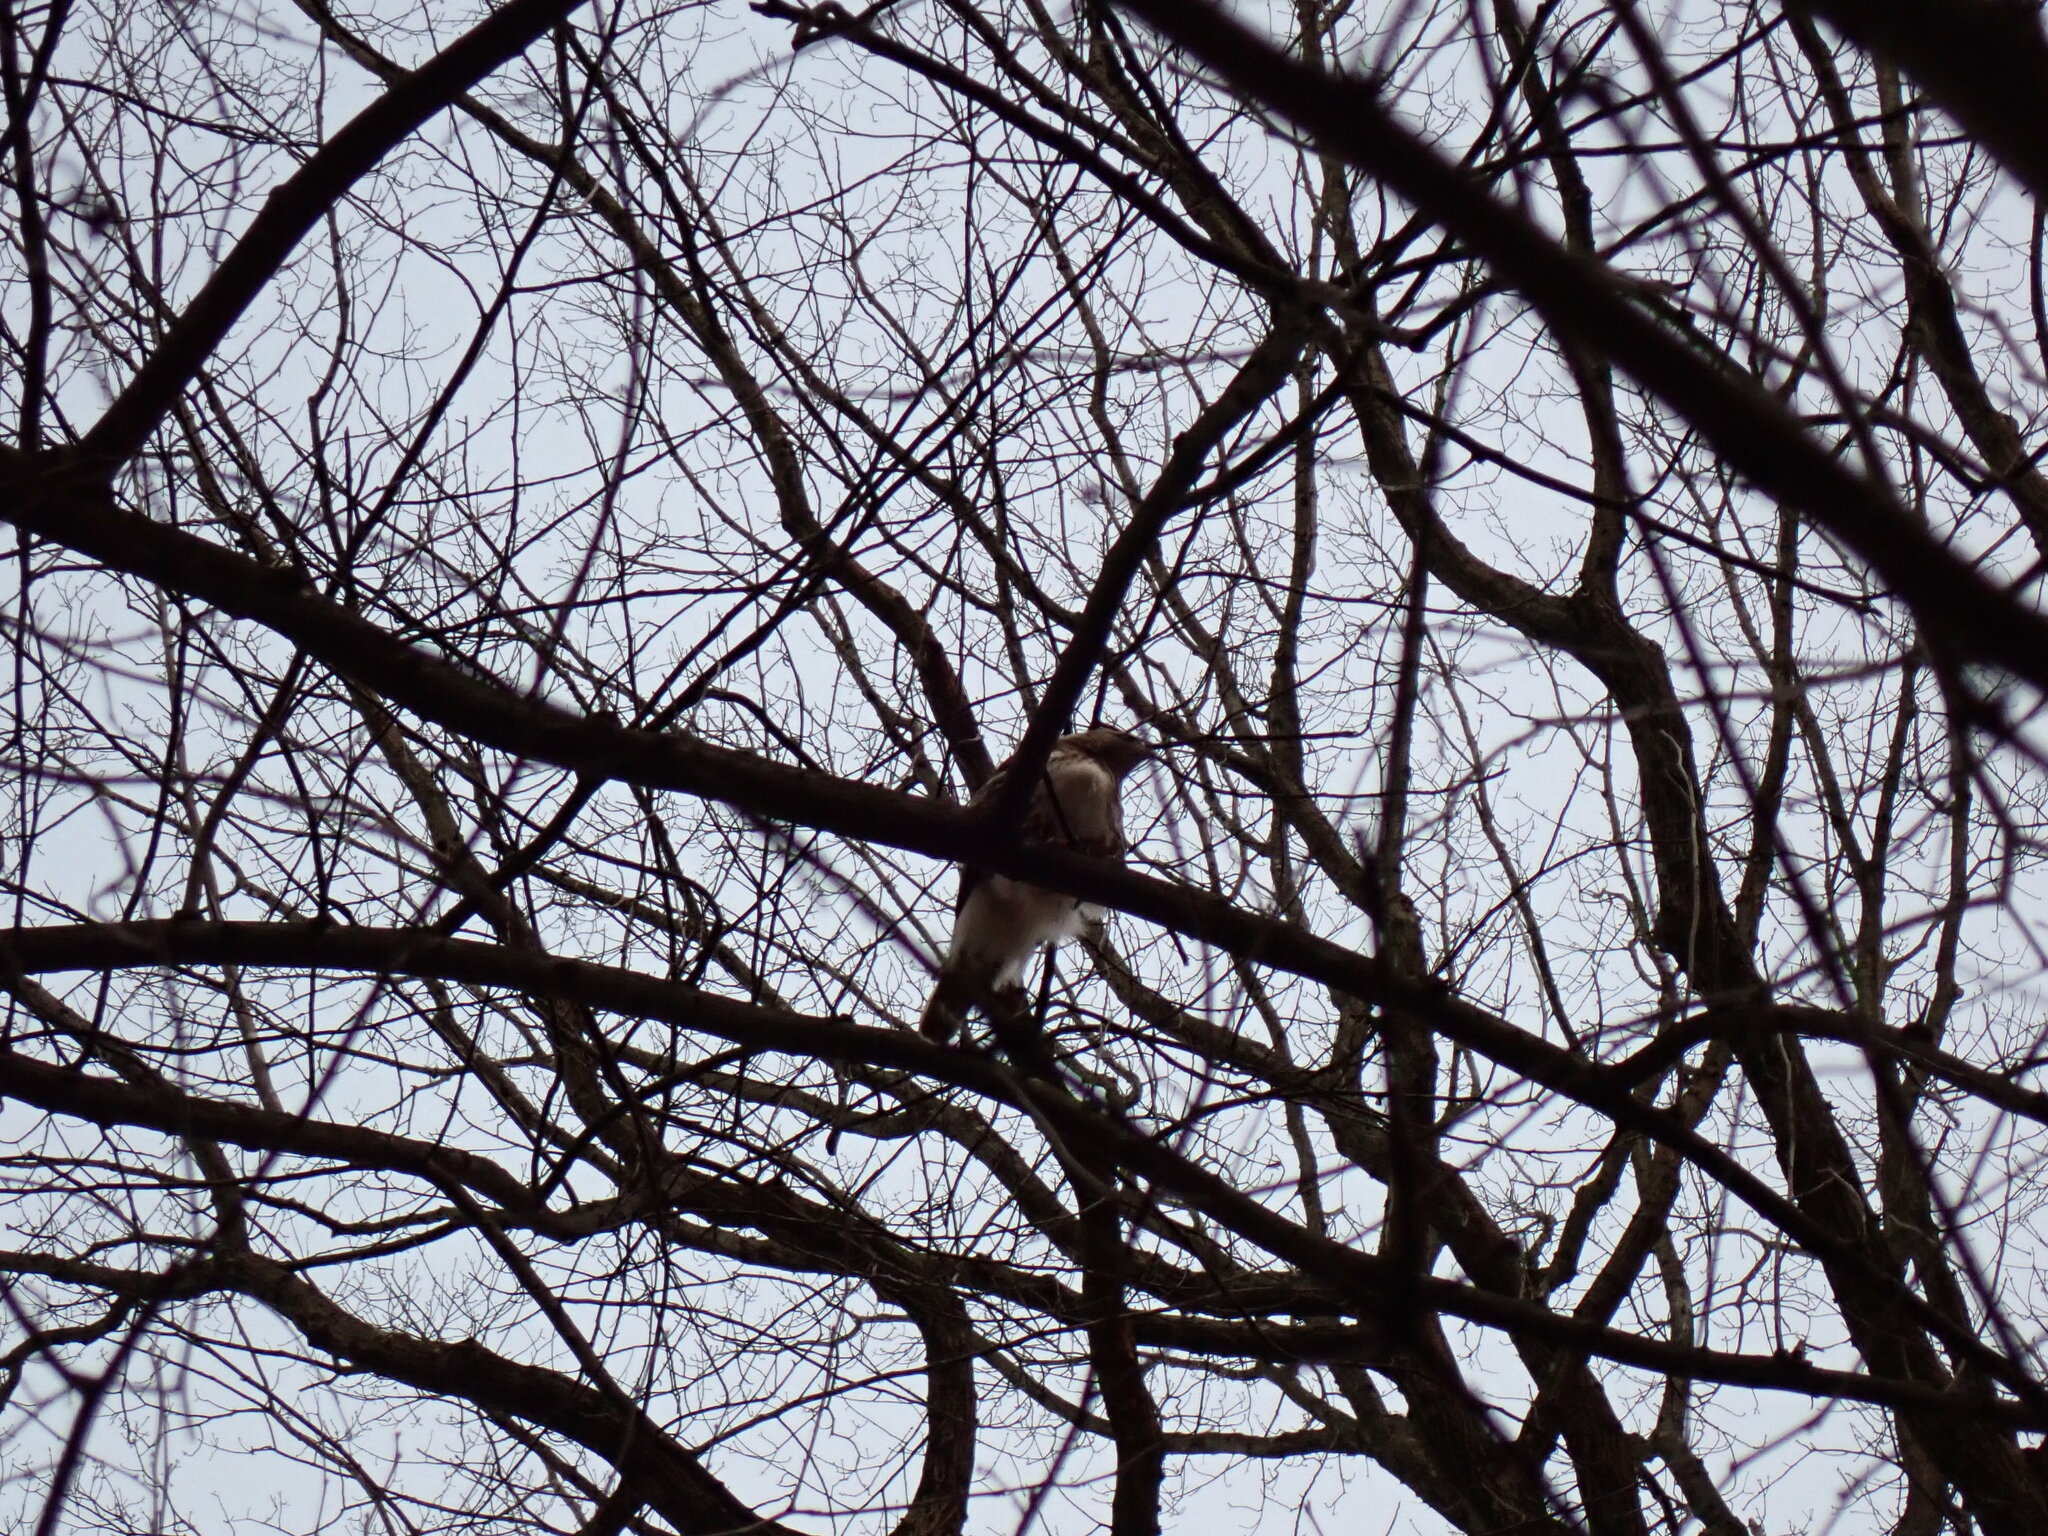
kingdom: Animalia
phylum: Chordata
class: Aves
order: Accipitriformes
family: Accipitridae
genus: Buteo
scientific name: Buteo jamaicensis
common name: Red-tailed hawk
